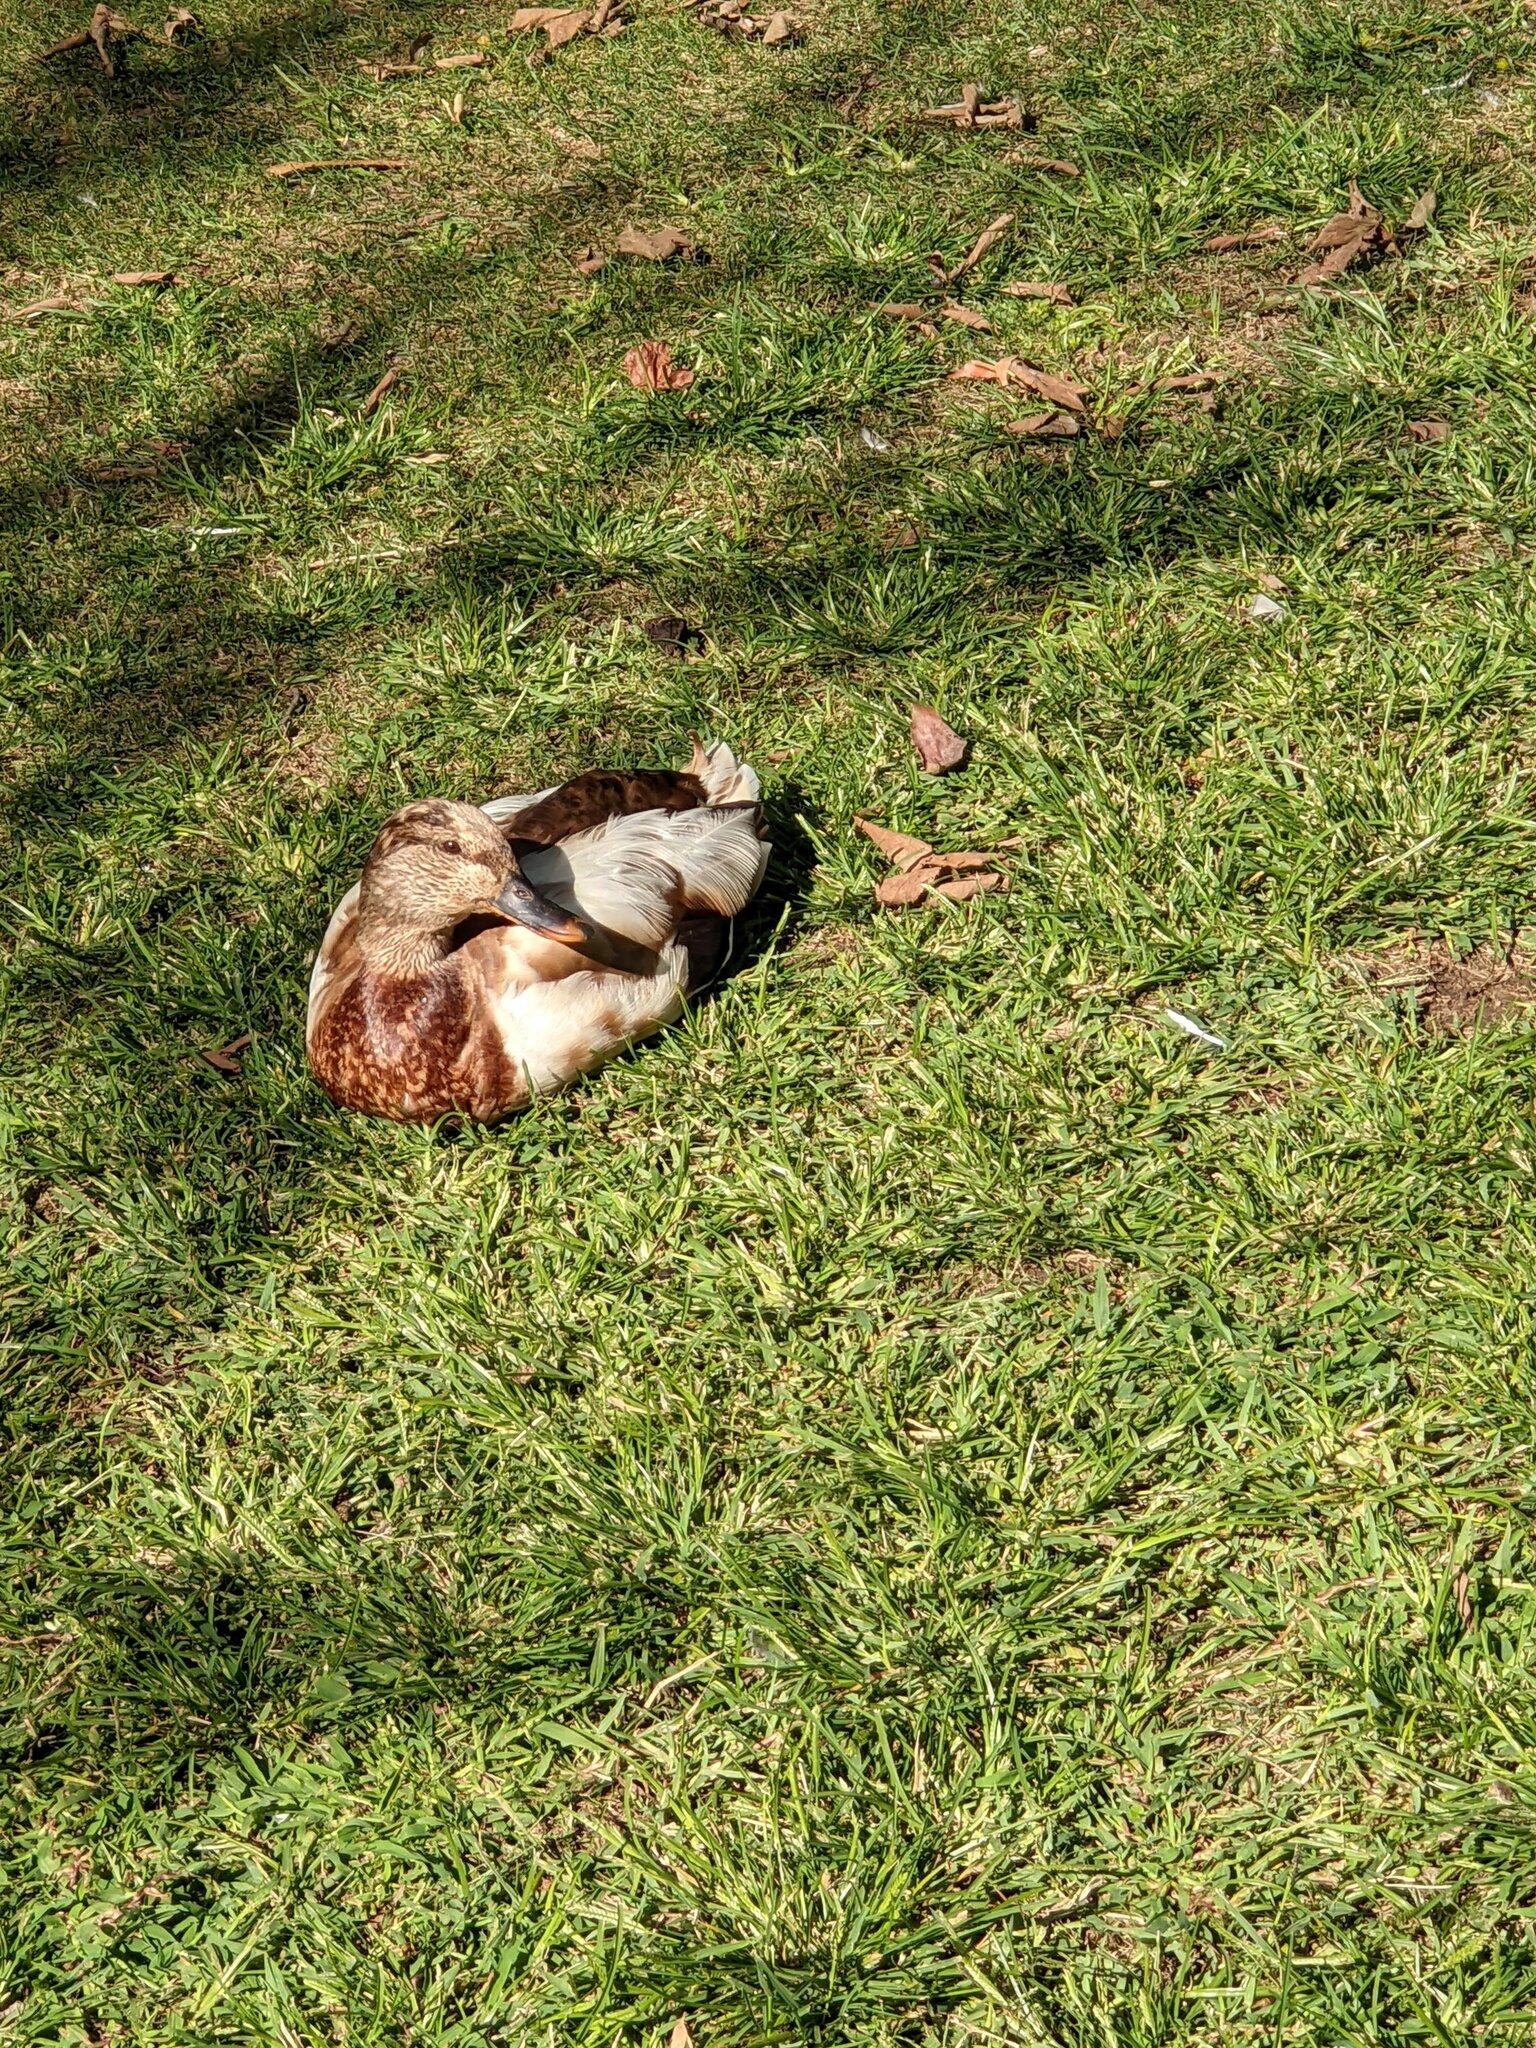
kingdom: Animalia
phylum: Chordata
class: Aves
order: Anseriformes
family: Anatidae
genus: Anas
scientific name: Anas platyrhynchos
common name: Mallard
